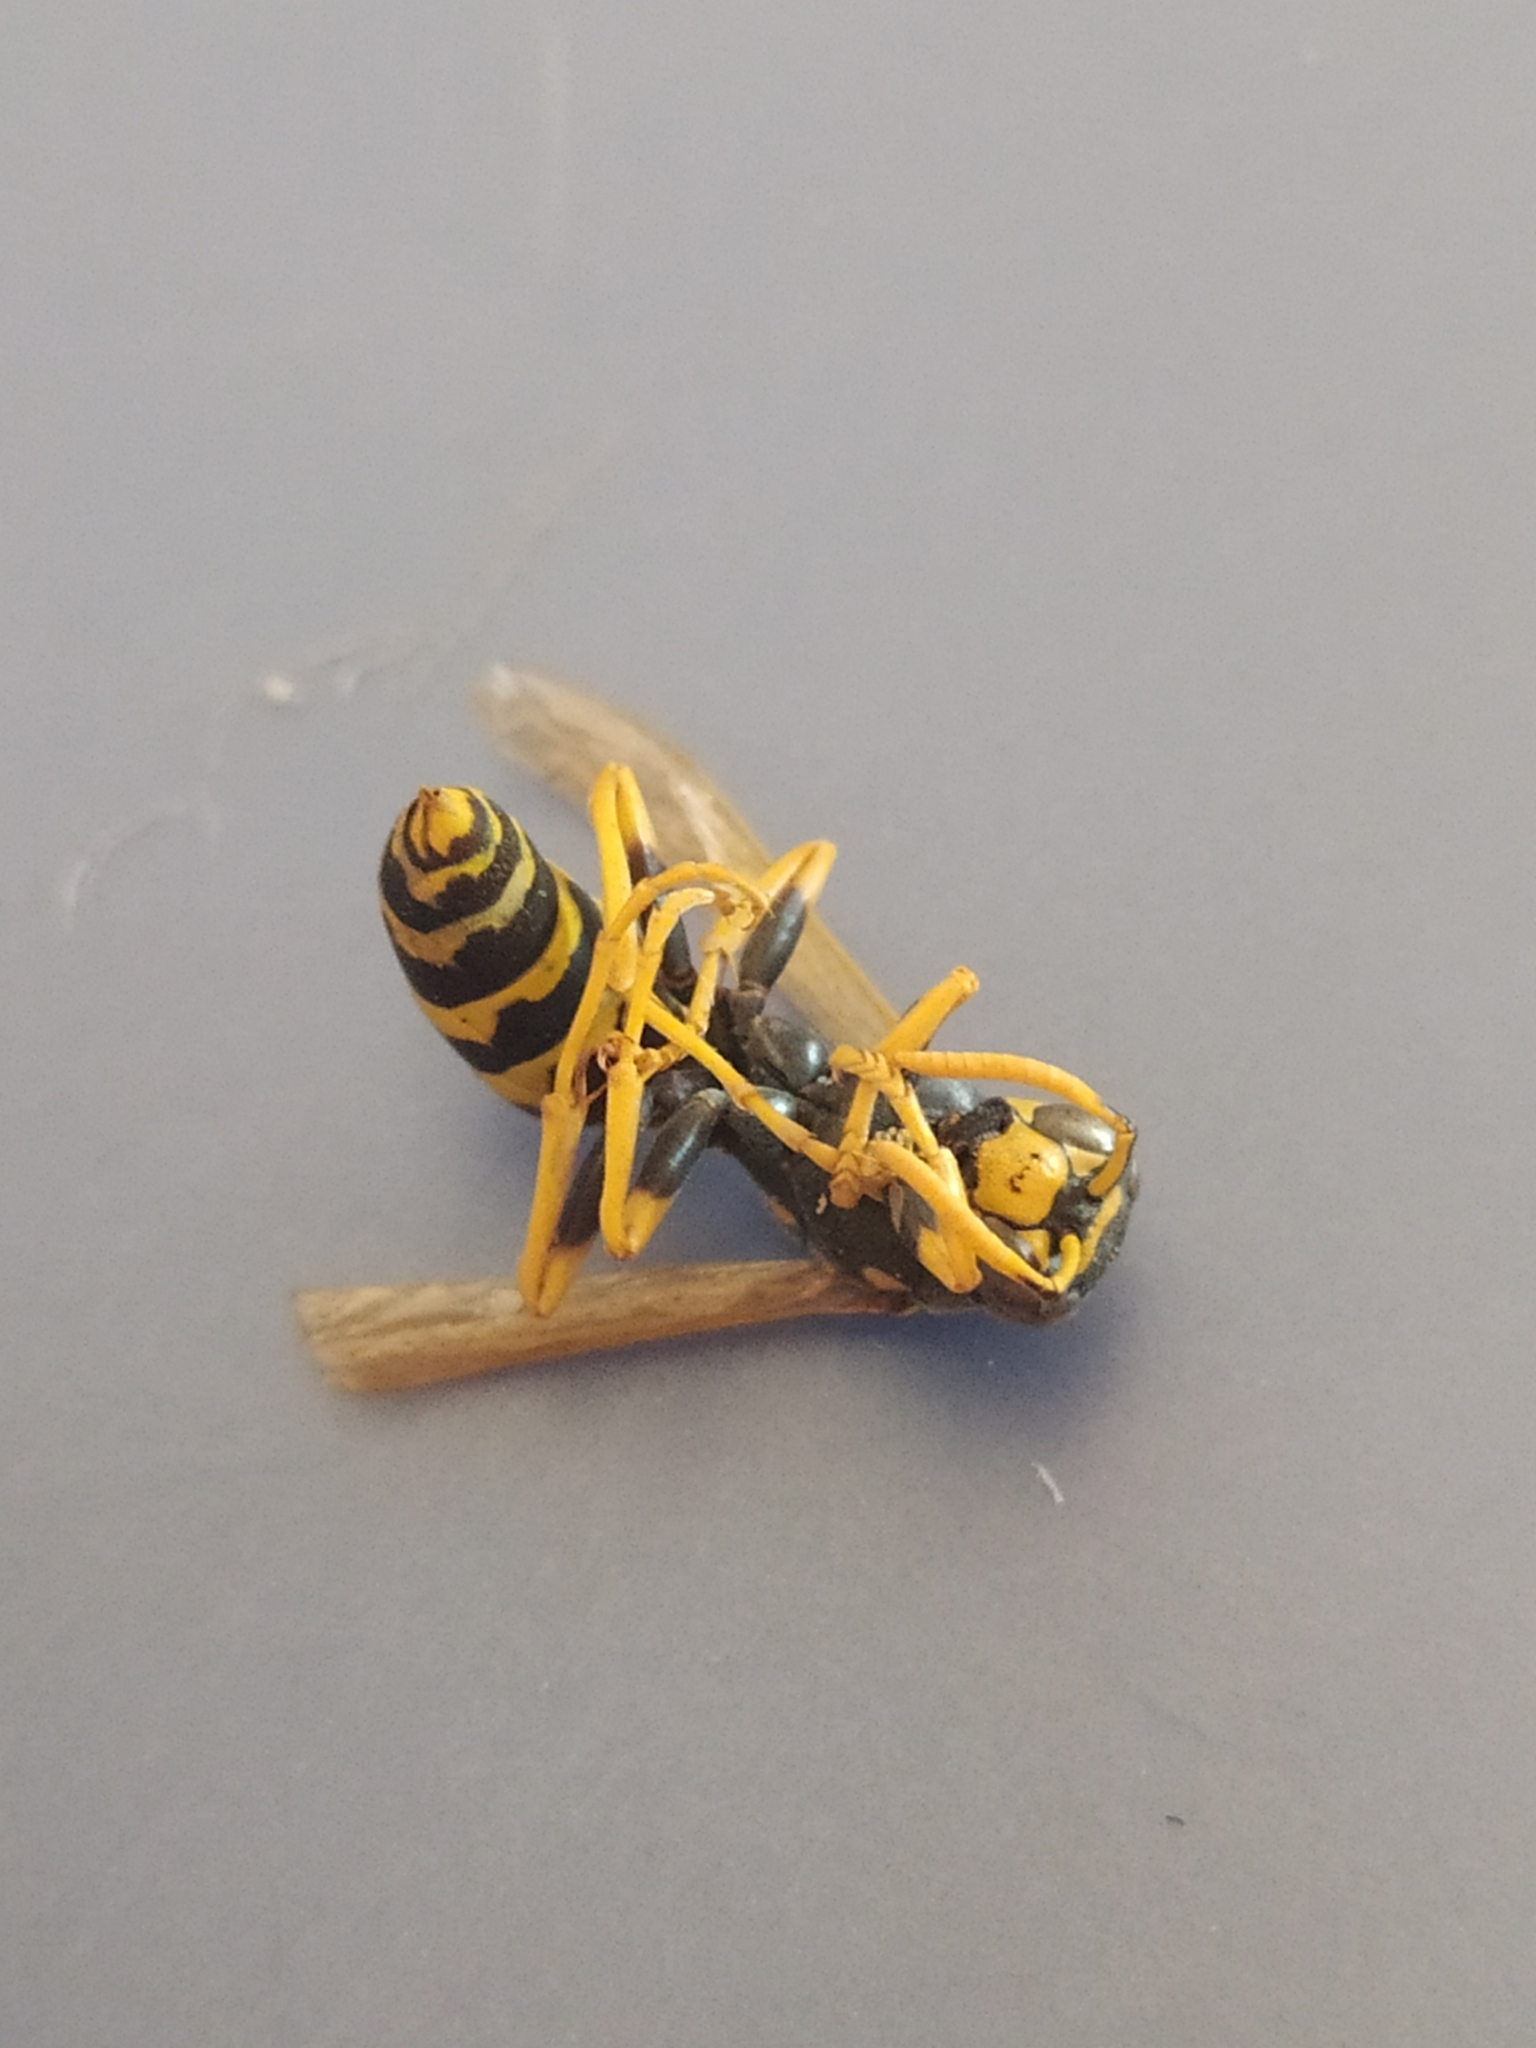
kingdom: Animalia
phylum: Arthropoda
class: Insecta
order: Hymenoptera
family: Eumenidae
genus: Polistes
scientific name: Polistes dominula
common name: Paper wasp
